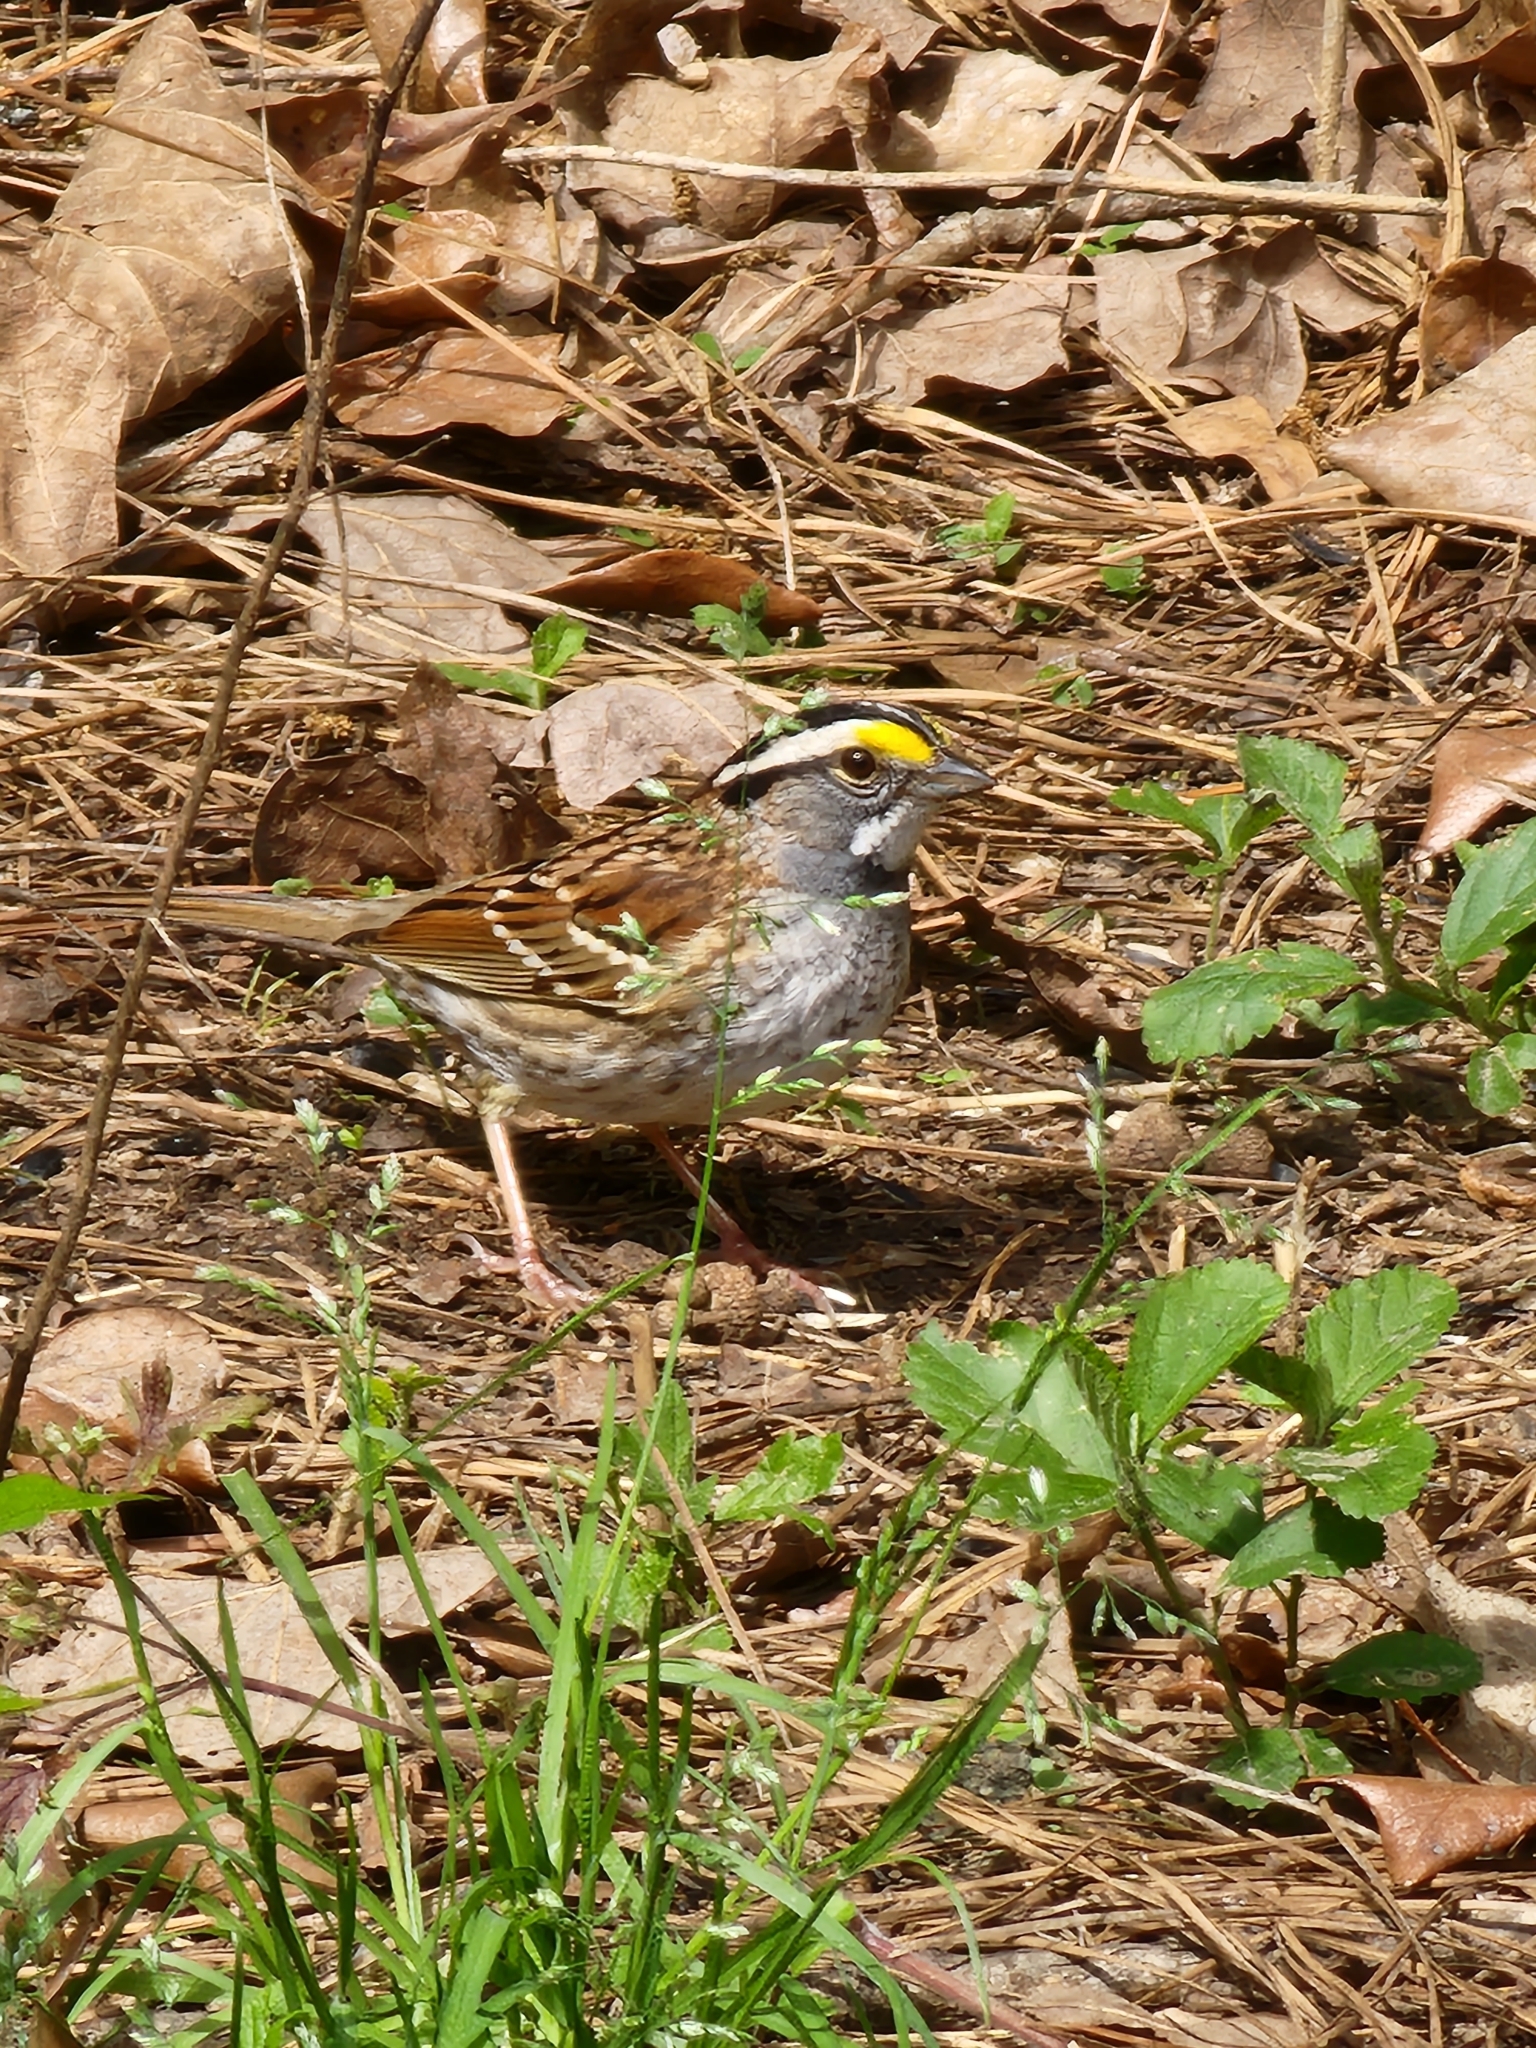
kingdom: Animalia
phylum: Chordata
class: Aves
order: Passeriformes
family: Passerellidae
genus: Zonotrichia
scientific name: Zonotrichia albicollis
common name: White-throated sparrow
